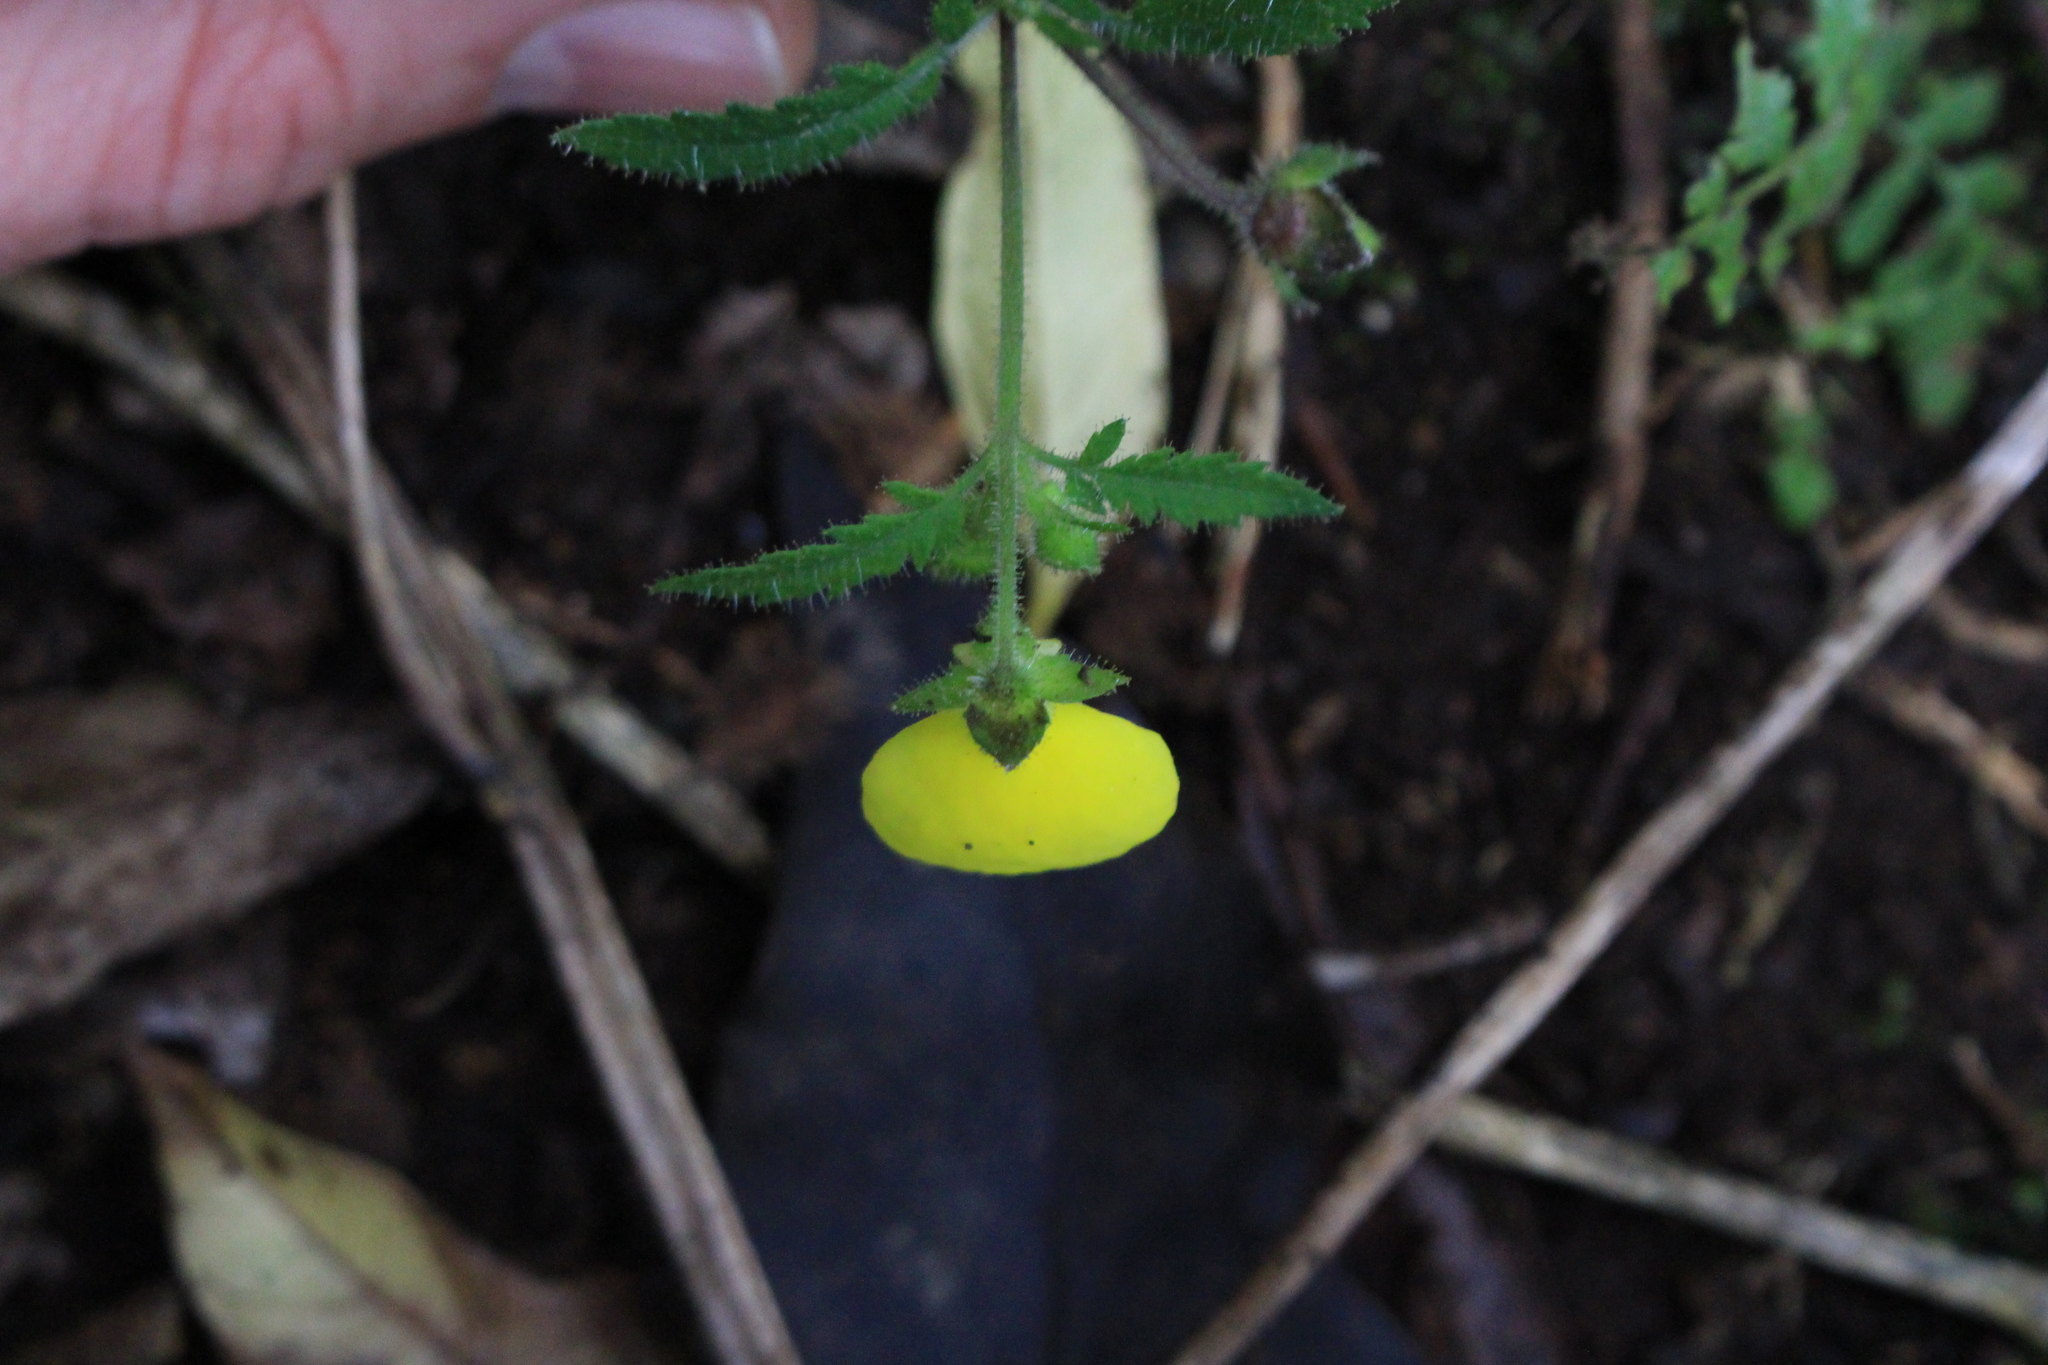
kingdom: Plantae
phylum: Tracheophyta
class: Magnoliopsida
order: Lamiales
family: Calceolariaceae
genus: Calceolaria
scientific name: Calceolaria tripartita
